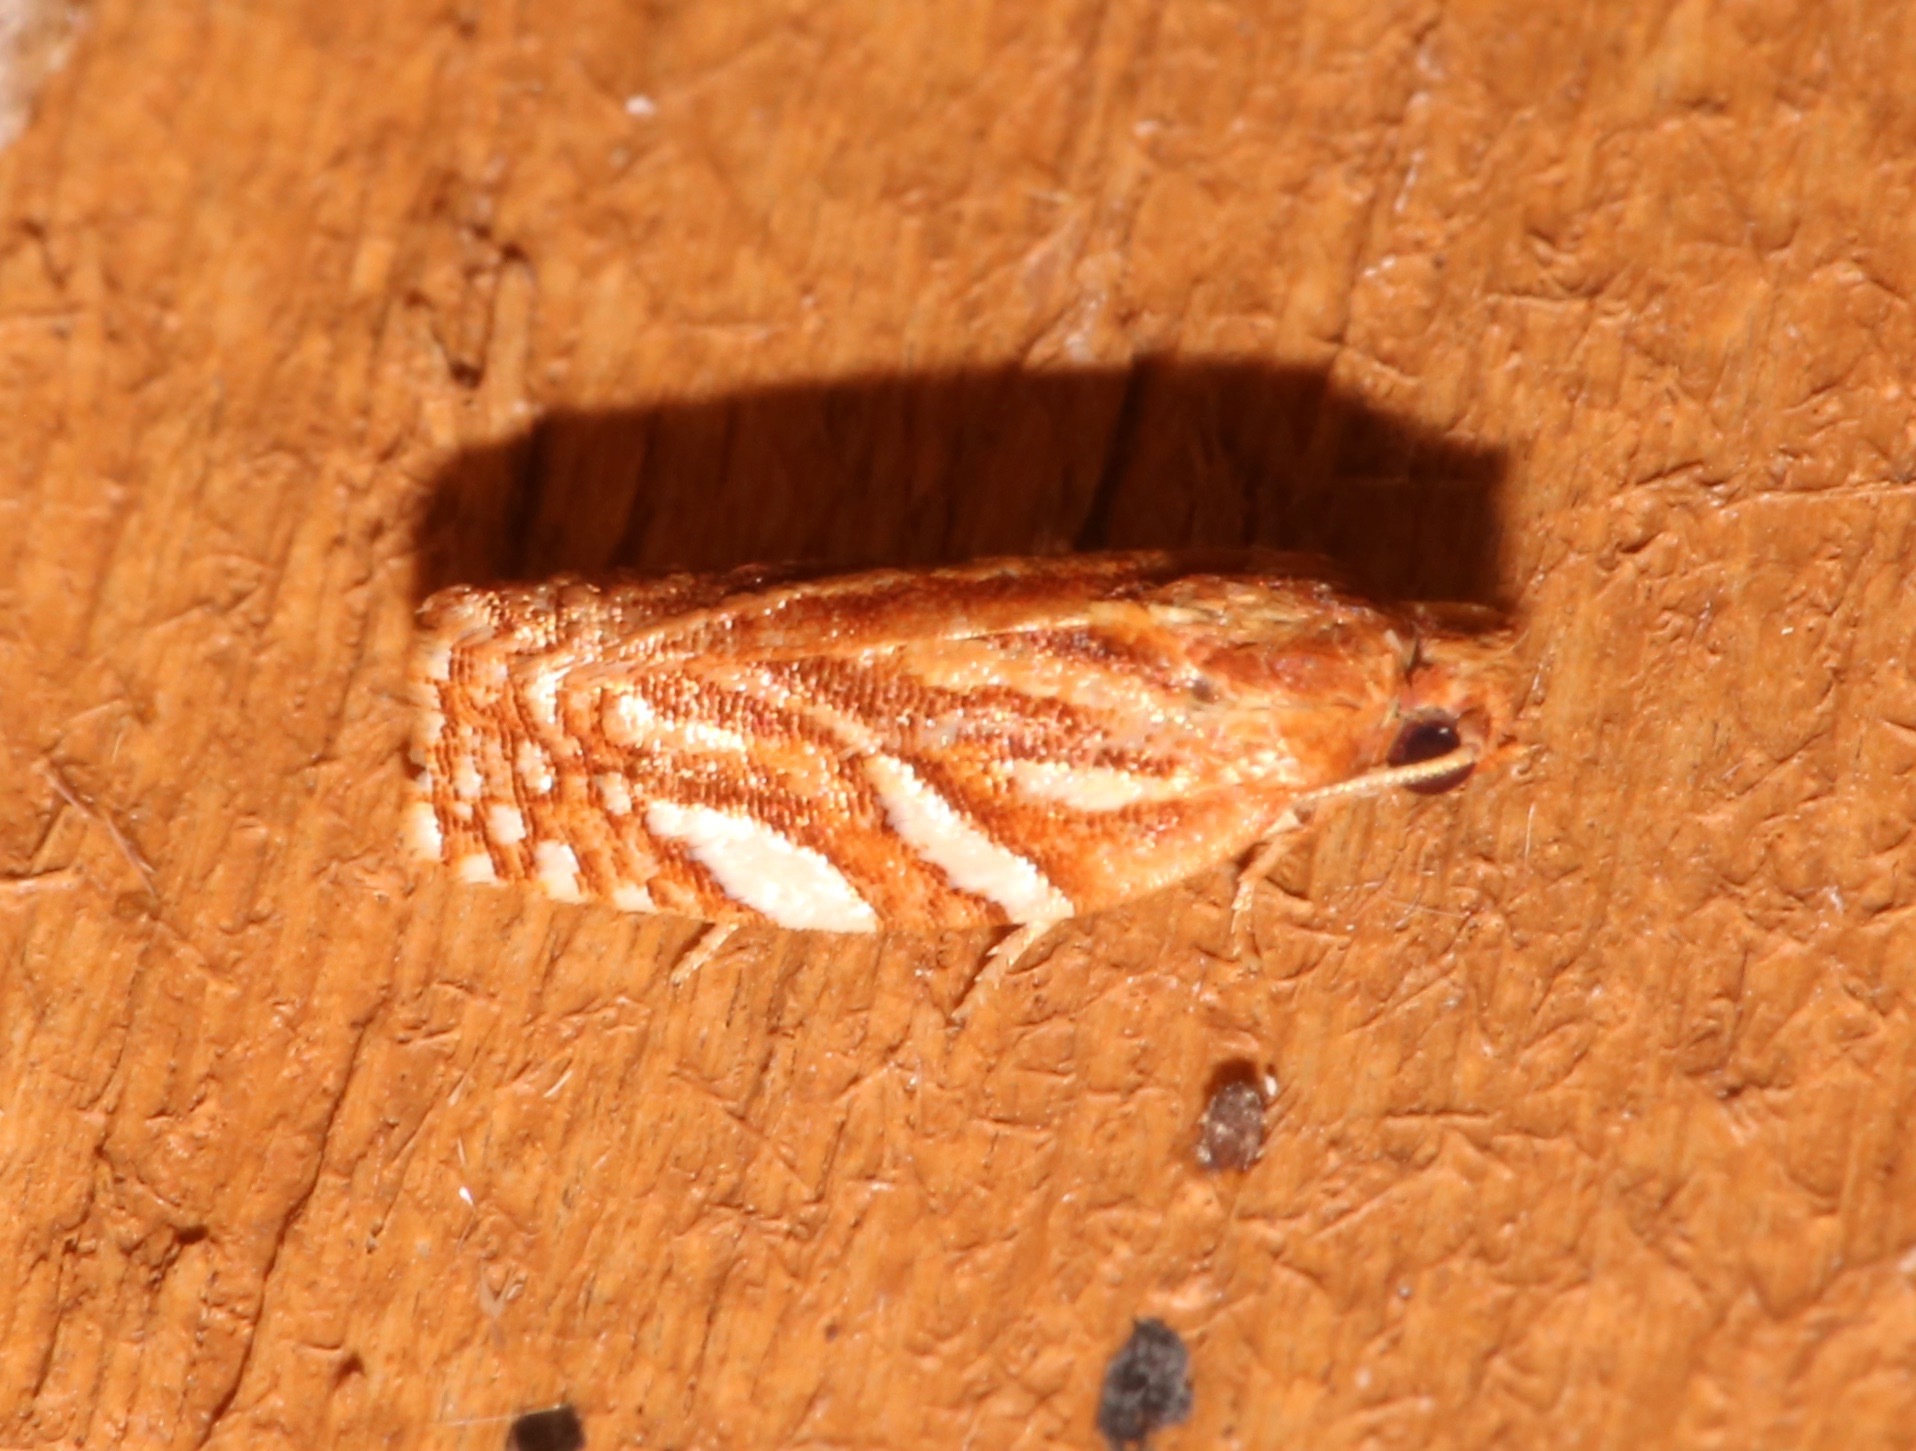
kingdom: Animalia
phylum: Arthropoda
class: Insecta
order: Lepidoptera
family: Tortricidae
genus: Choristoneura
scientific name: Choristoneura argentifasciata
